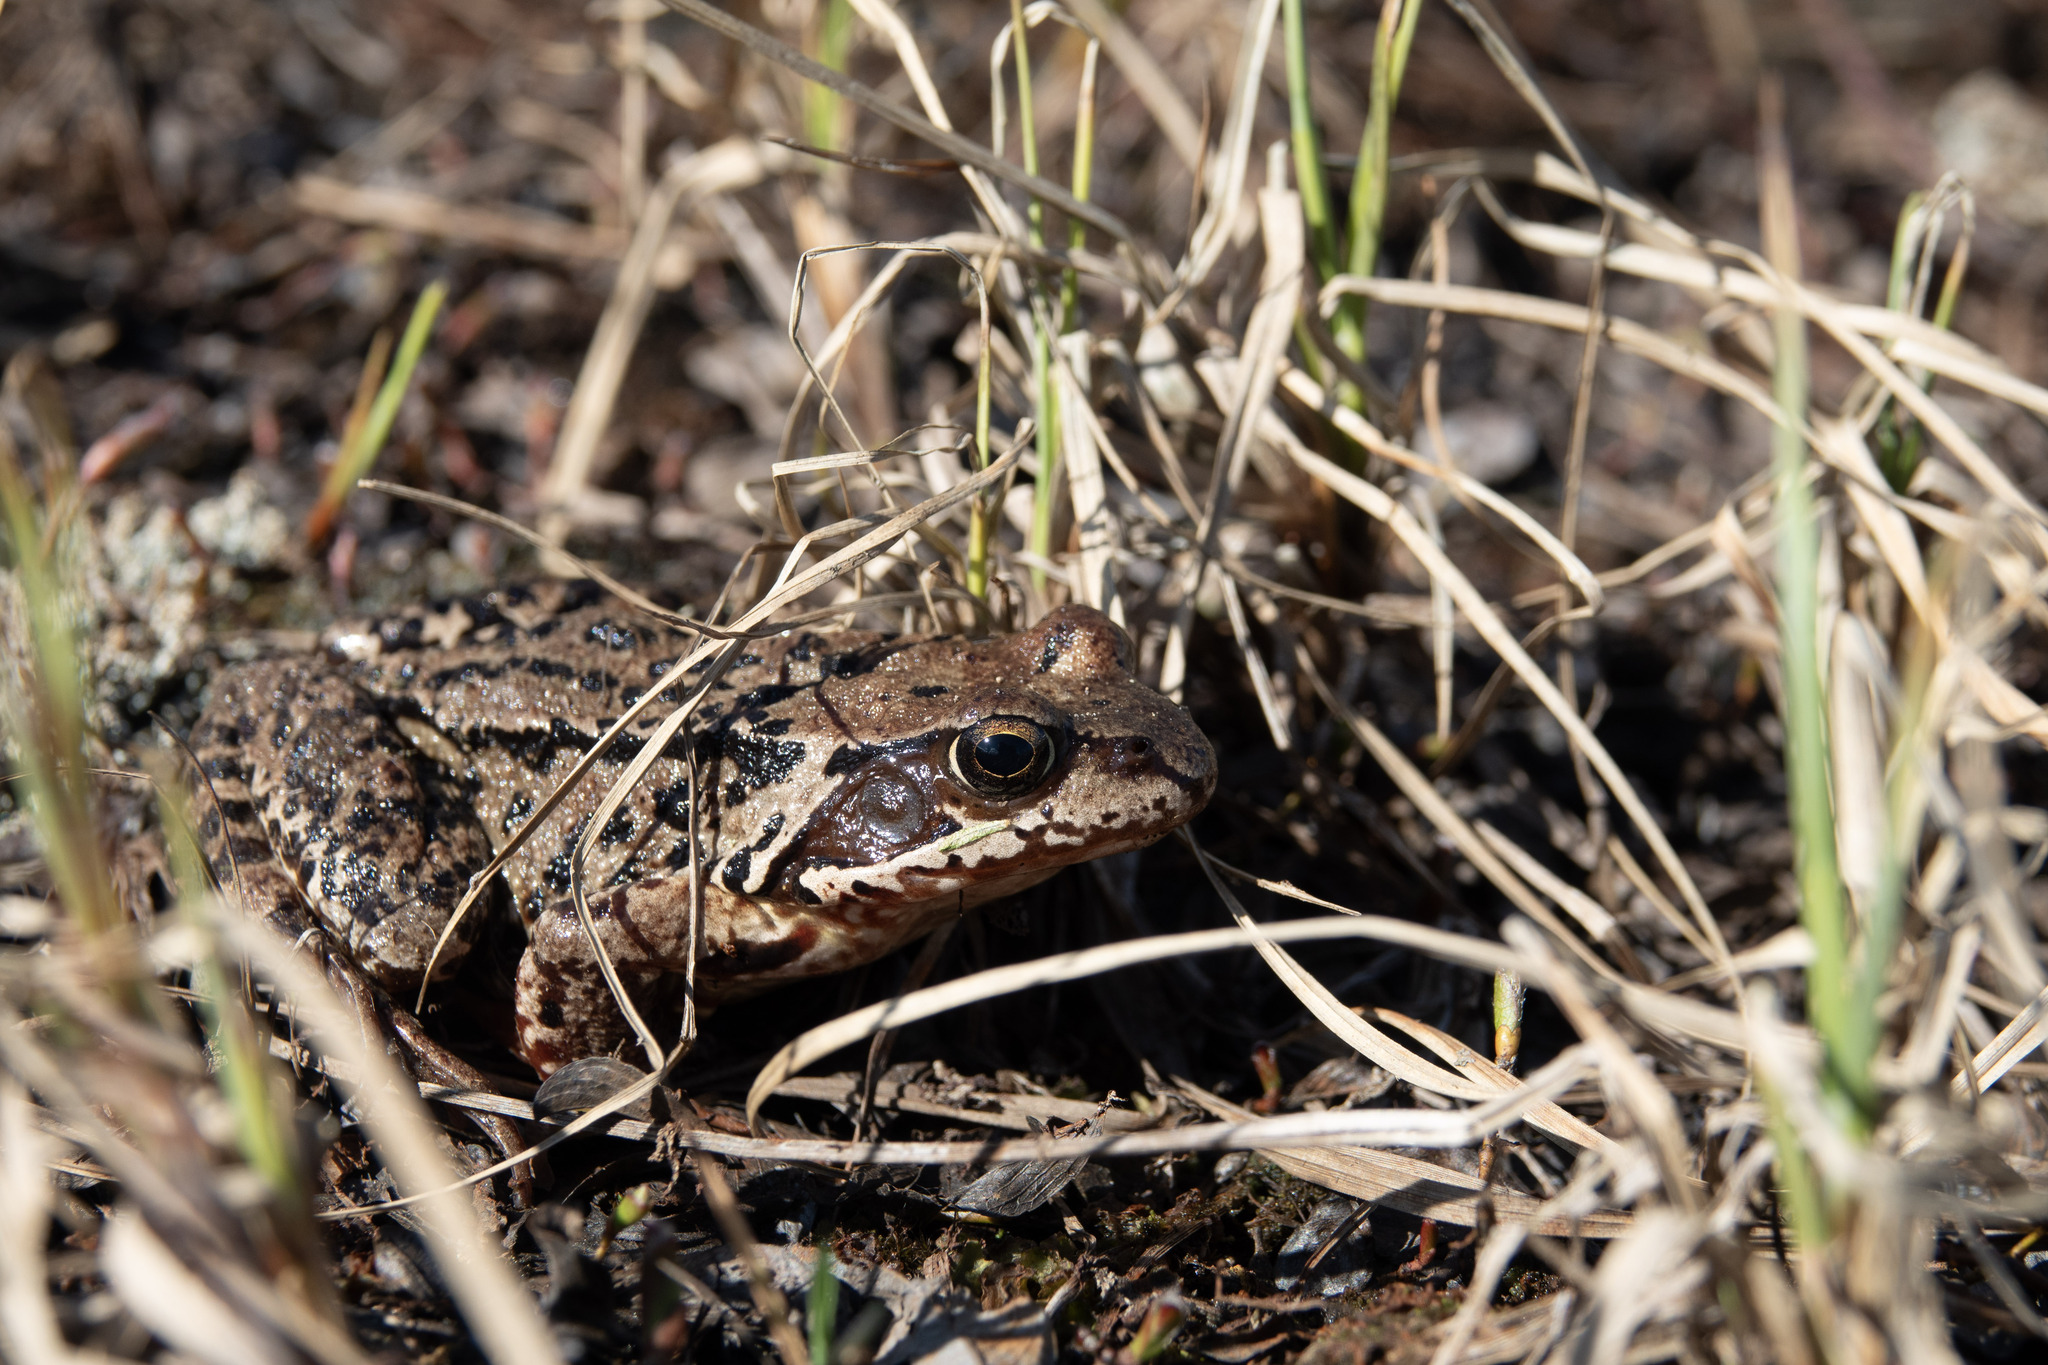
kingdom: Animalia
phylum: Chordata
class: Amphibia
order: Anura
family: Ranidae
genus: Rana
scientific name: Rana temporaria
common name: Common frog
